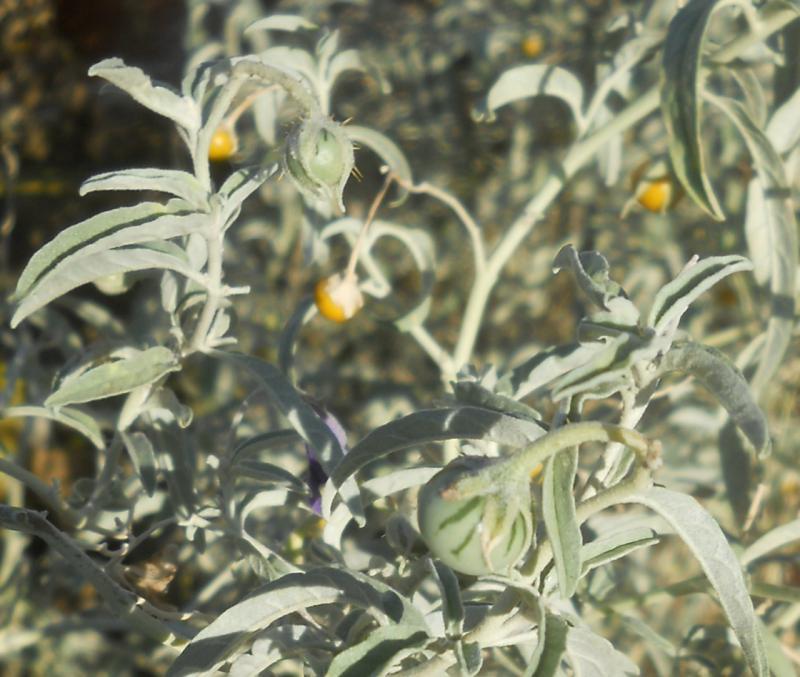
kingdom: Plantae
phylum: Tracheophyta
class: Magnoliopsida
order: Solanales
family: Solanaceae
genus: Solanum
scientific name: Solanum elaeagnifolium
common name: Silverleaf nightshade
